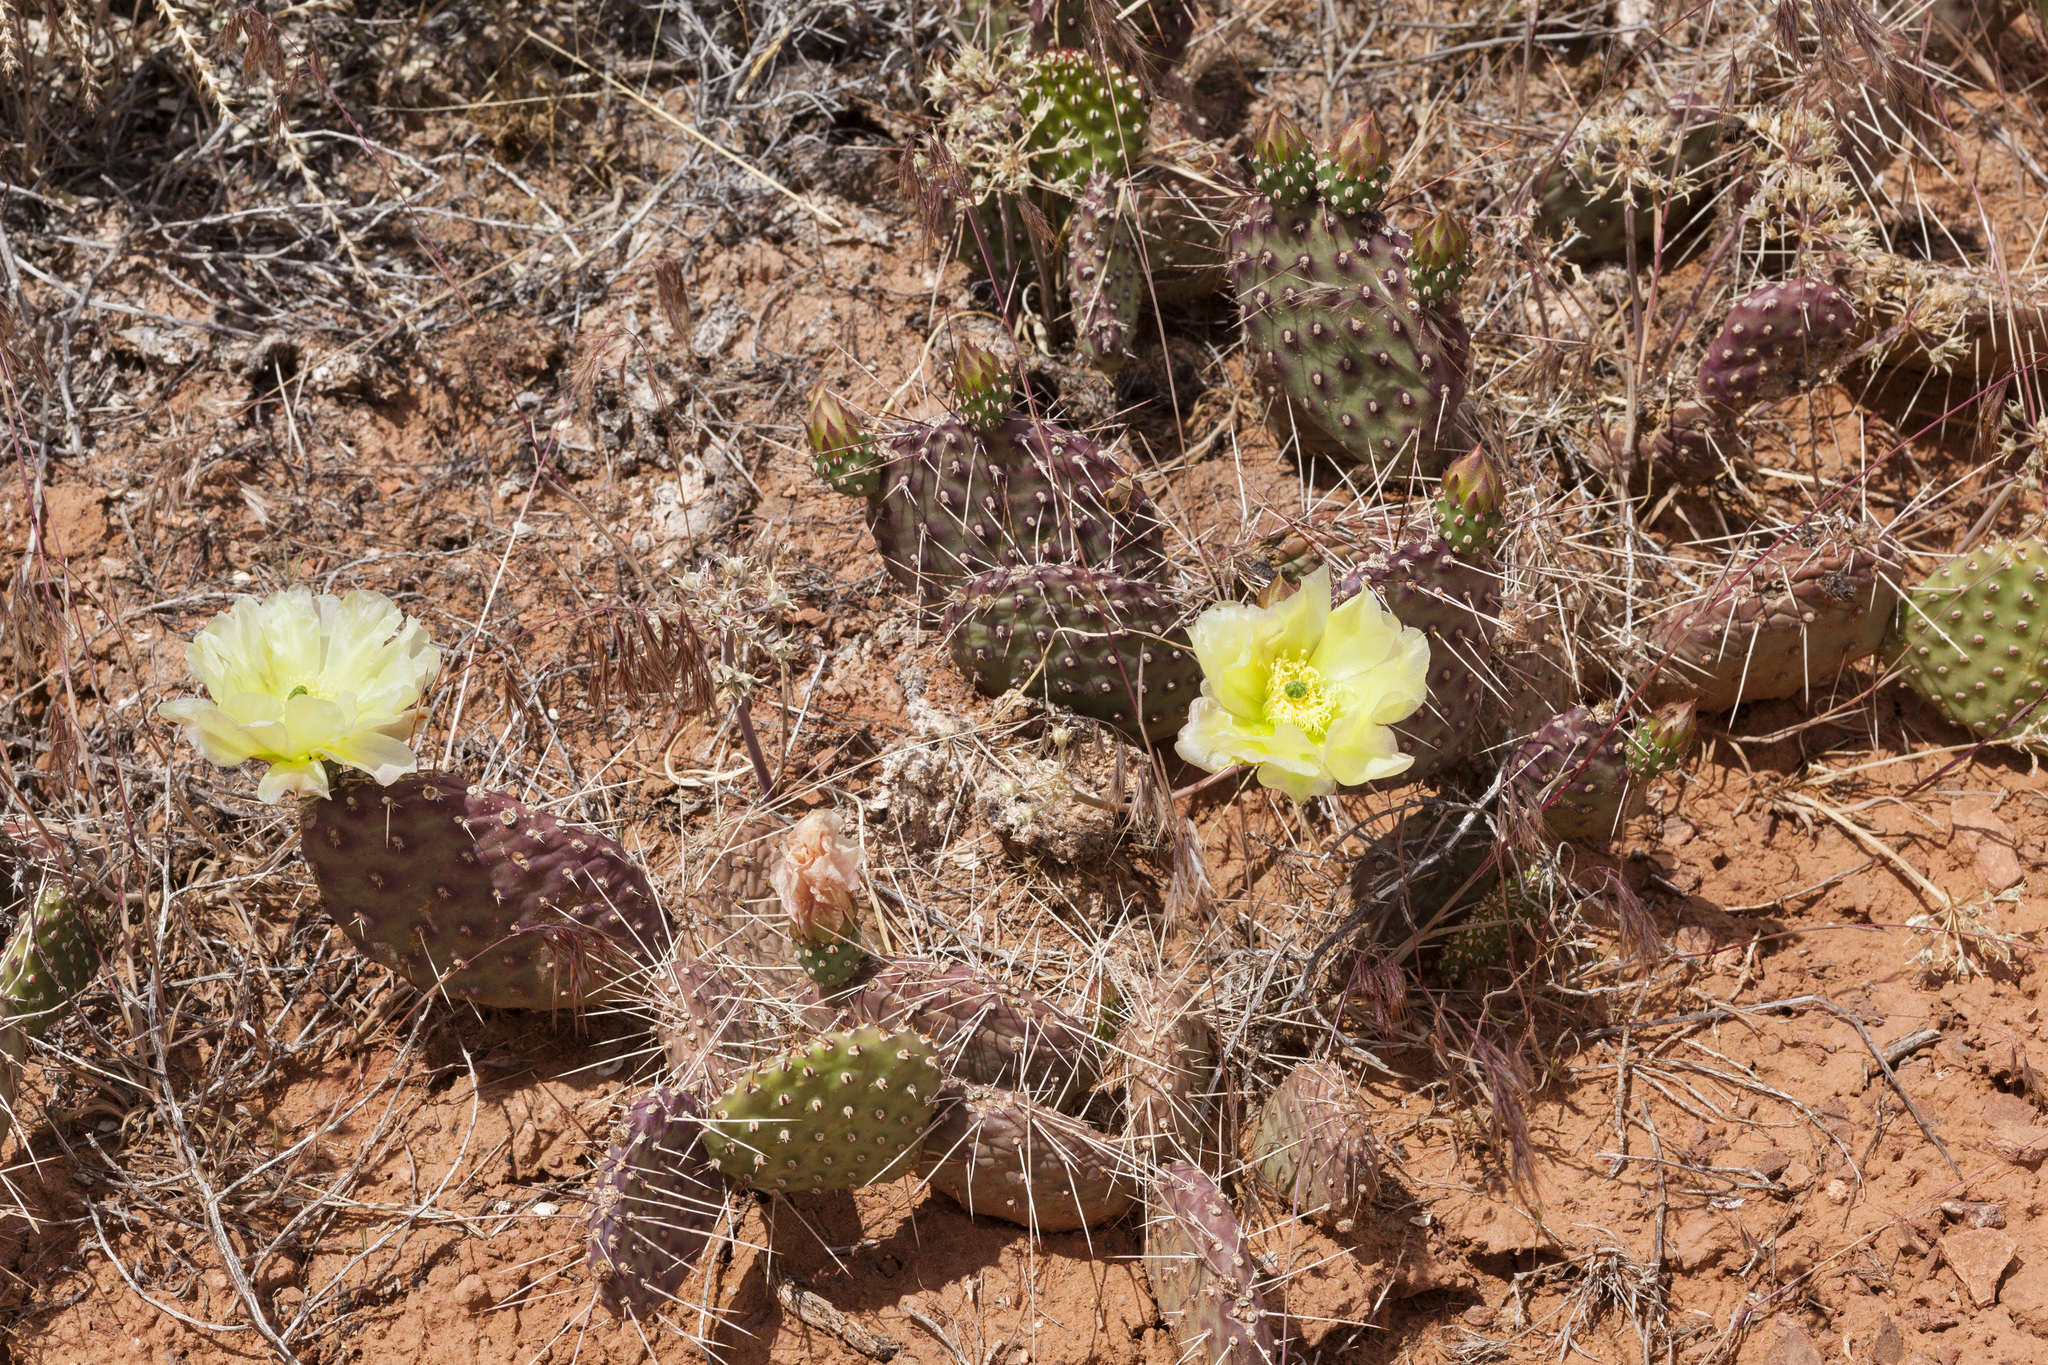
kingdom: Plantae
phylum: Tracheophyta
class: Magnoliopsida
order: Caryophyllales
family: Cactaceae
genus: Opuntia
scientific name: Opuntia polyacantha
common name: Plains prickly-pear
